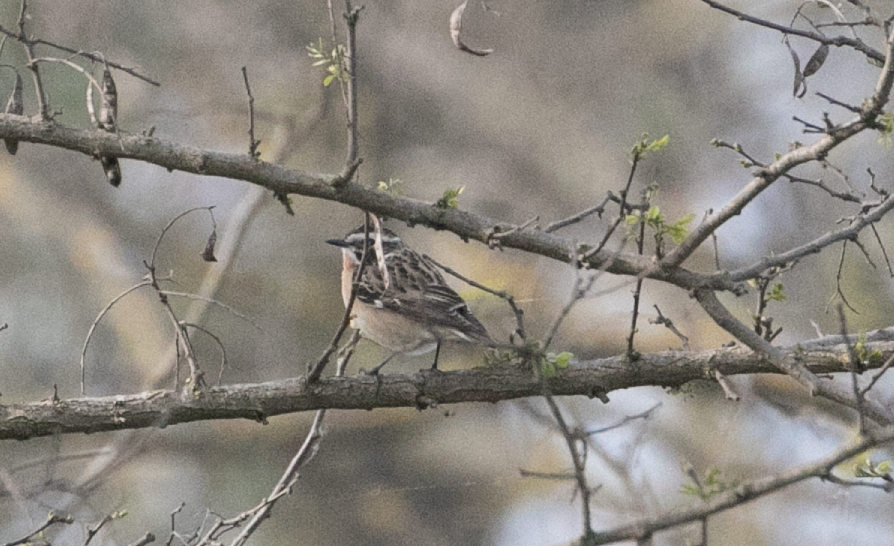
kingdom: Animalia
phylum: Chordata
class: Aves
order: Passeriformes
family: Muscicapidae
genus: Saxicola
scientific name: Saxicola rubetra
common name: Whinchat
